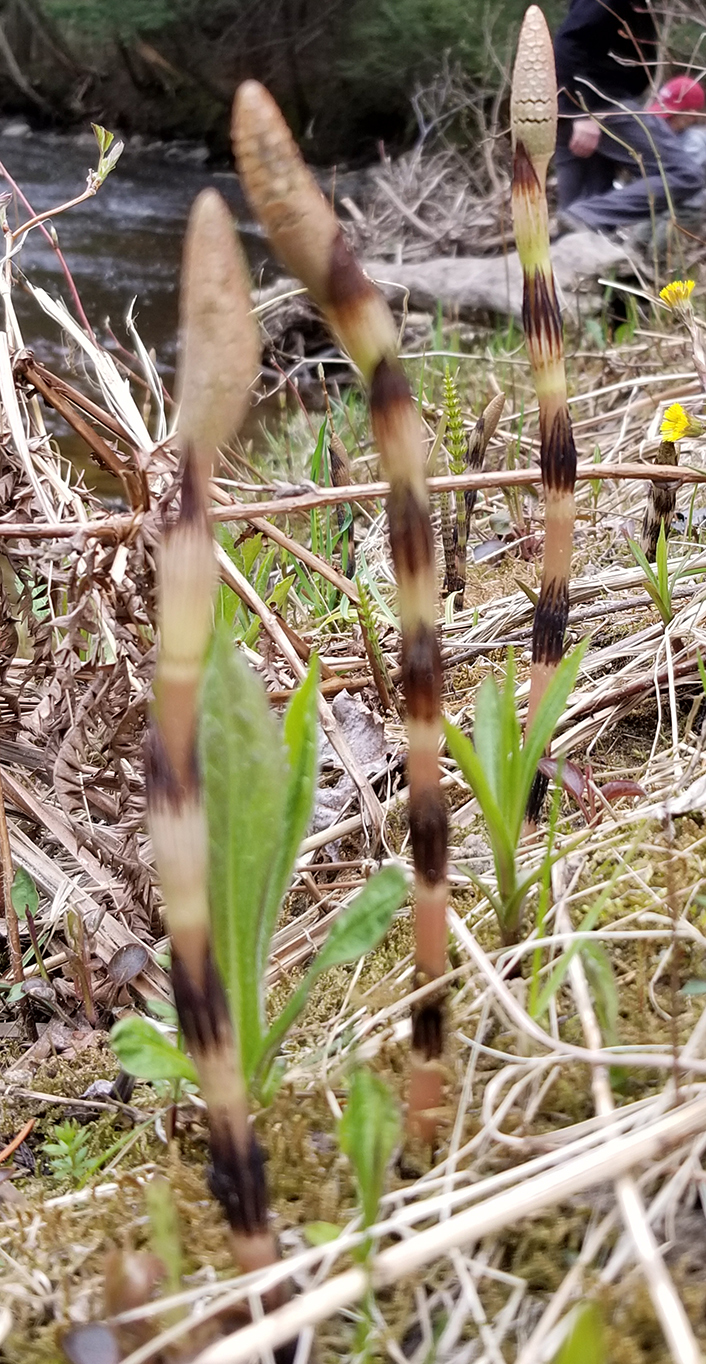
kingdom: Plantae
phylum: Tracheophyta
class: Polypodiopsida
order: Equisetales
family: Equisetaceae
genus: Equisetum
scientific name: Equisetum arvense
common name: Field horsetail
